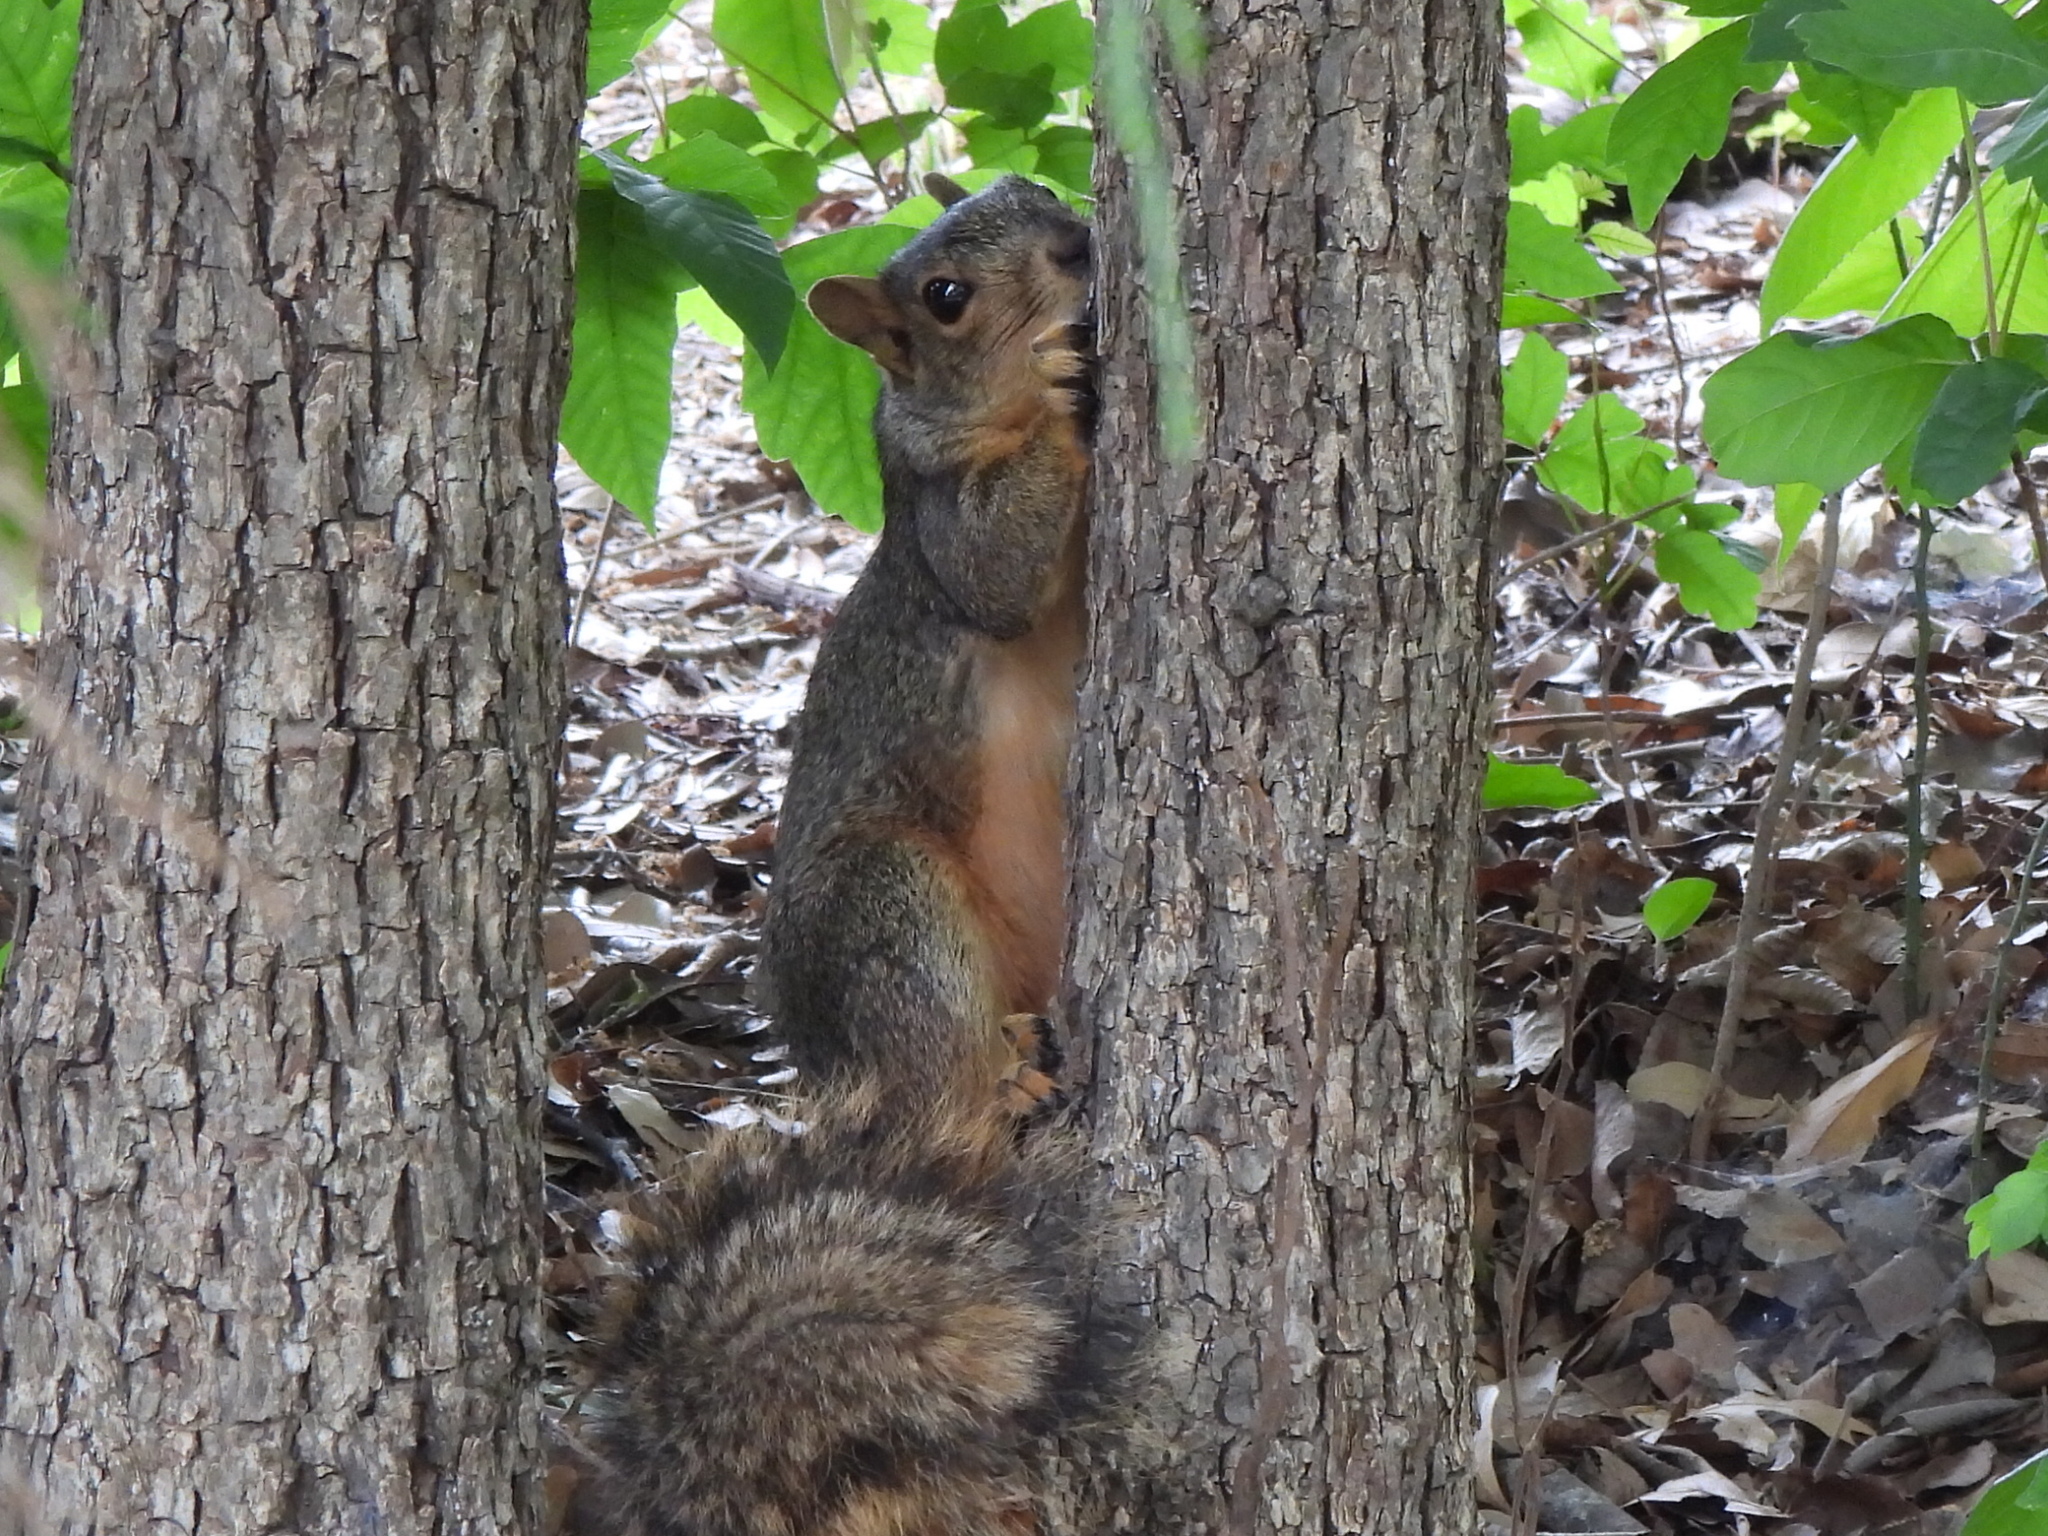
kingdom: Animalia
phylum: Chordata
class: Mammalia
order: Rodentia
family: Sciuridae
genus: Sciurus
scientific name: Sciurus niger
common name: Fox squirrel
